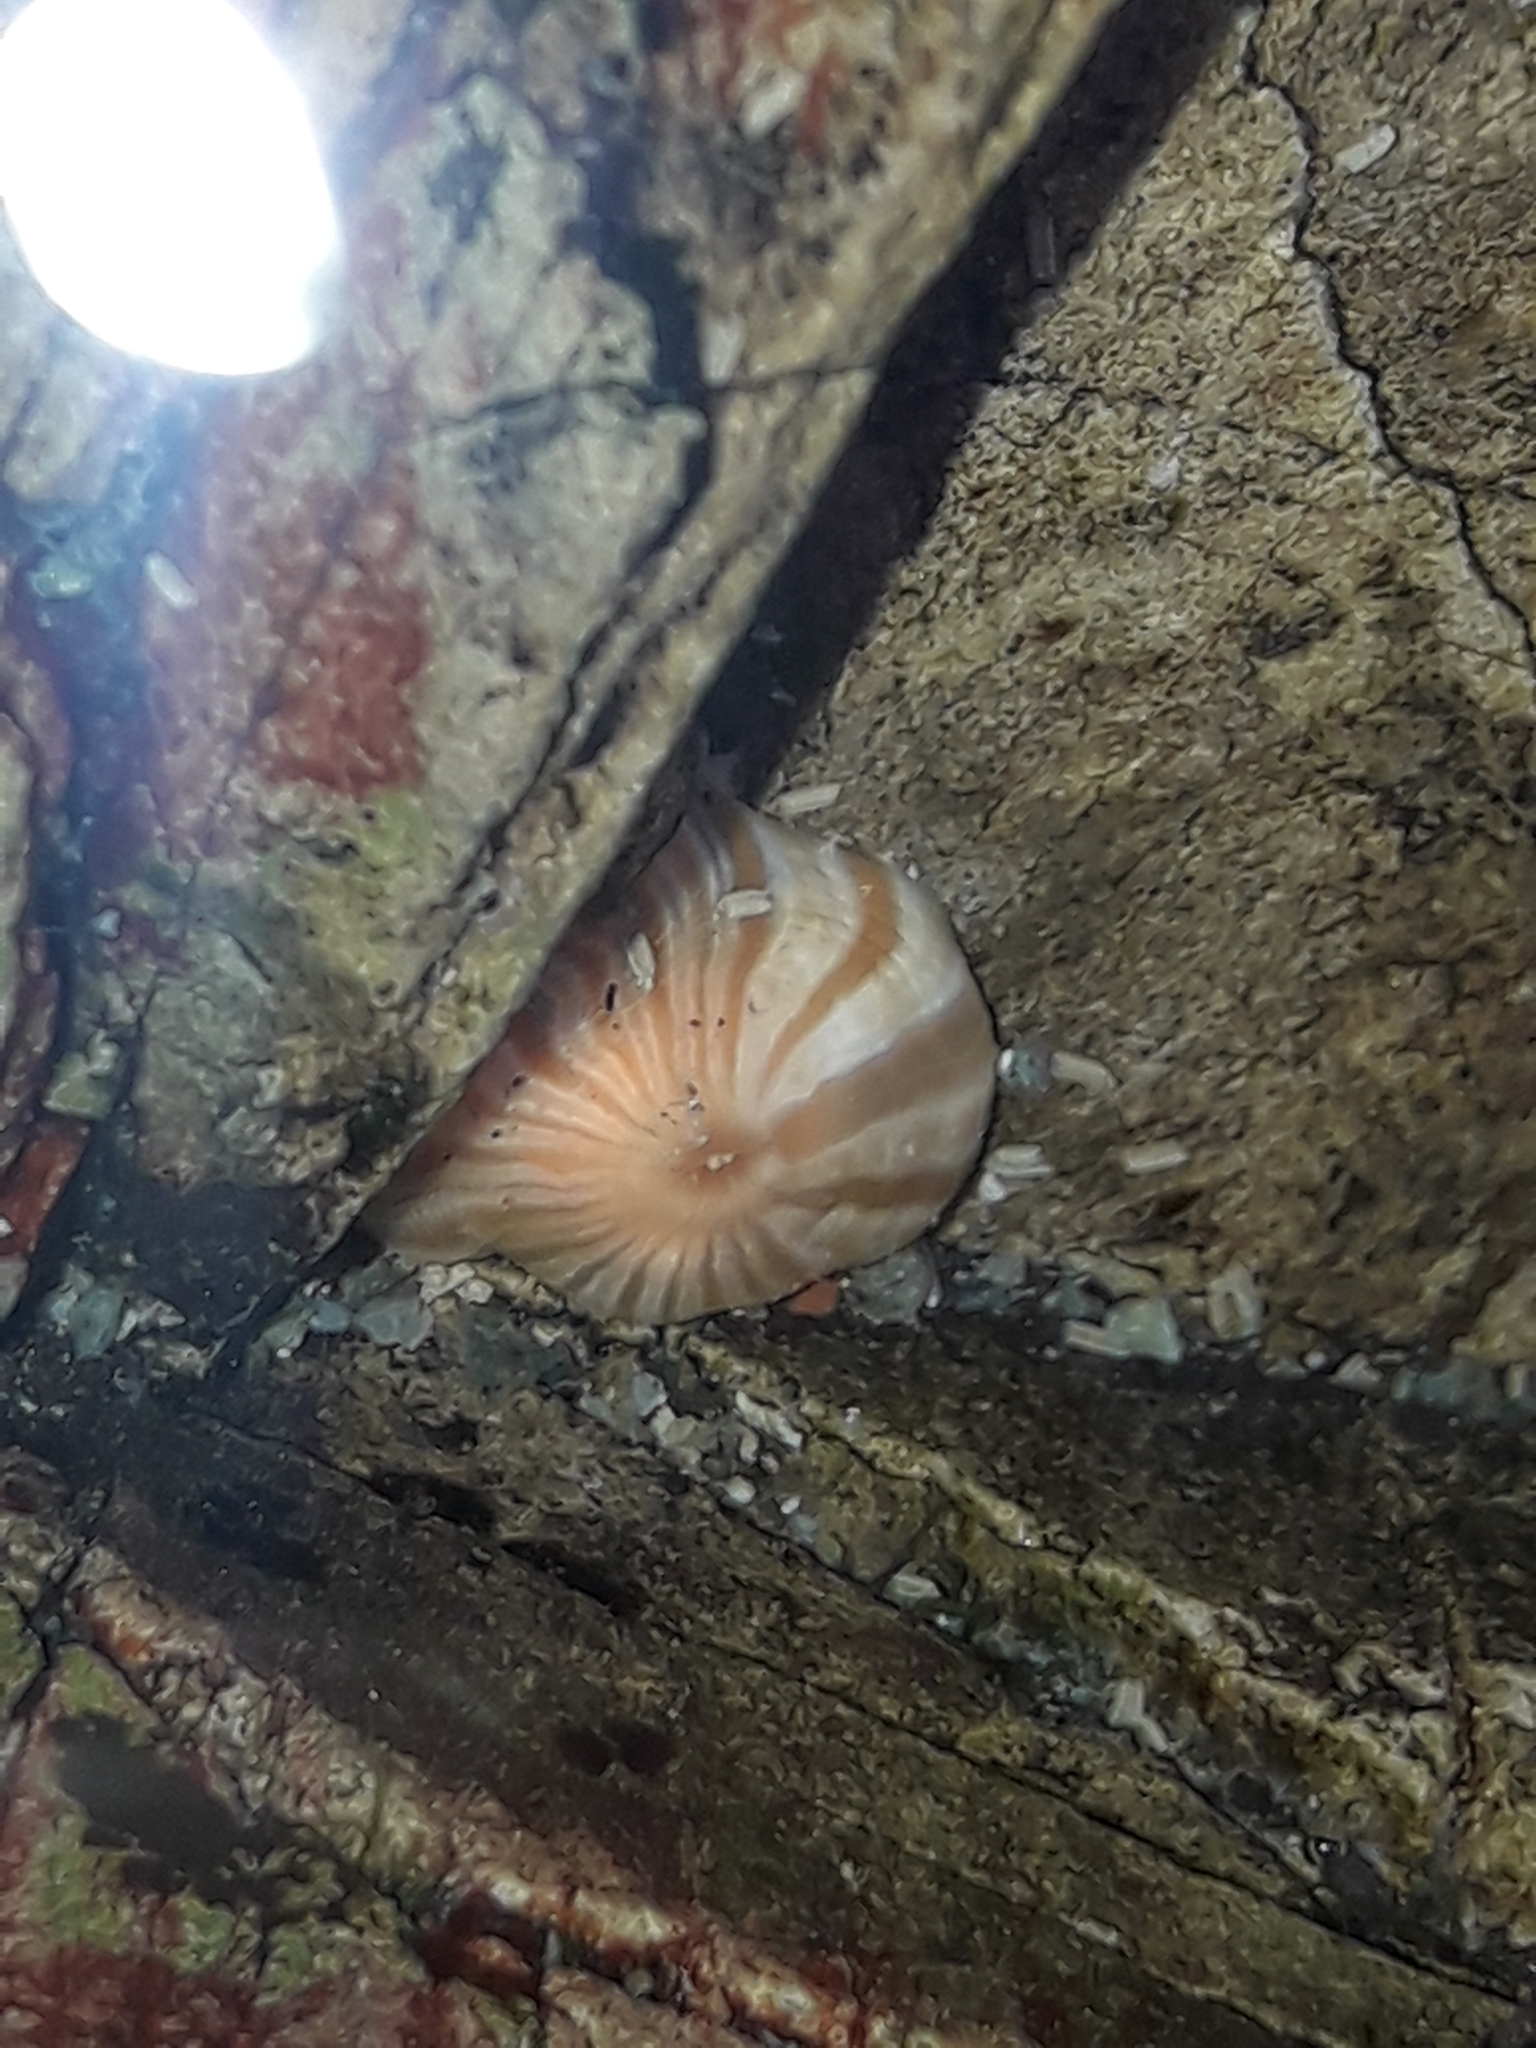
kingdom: Animalia
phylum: Cnidaria
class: Anthozoa
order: Actiniaria
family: Sagartiidae
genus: Anthothoe
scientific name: Anthothoe albocincta
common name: Orange striped anemone
